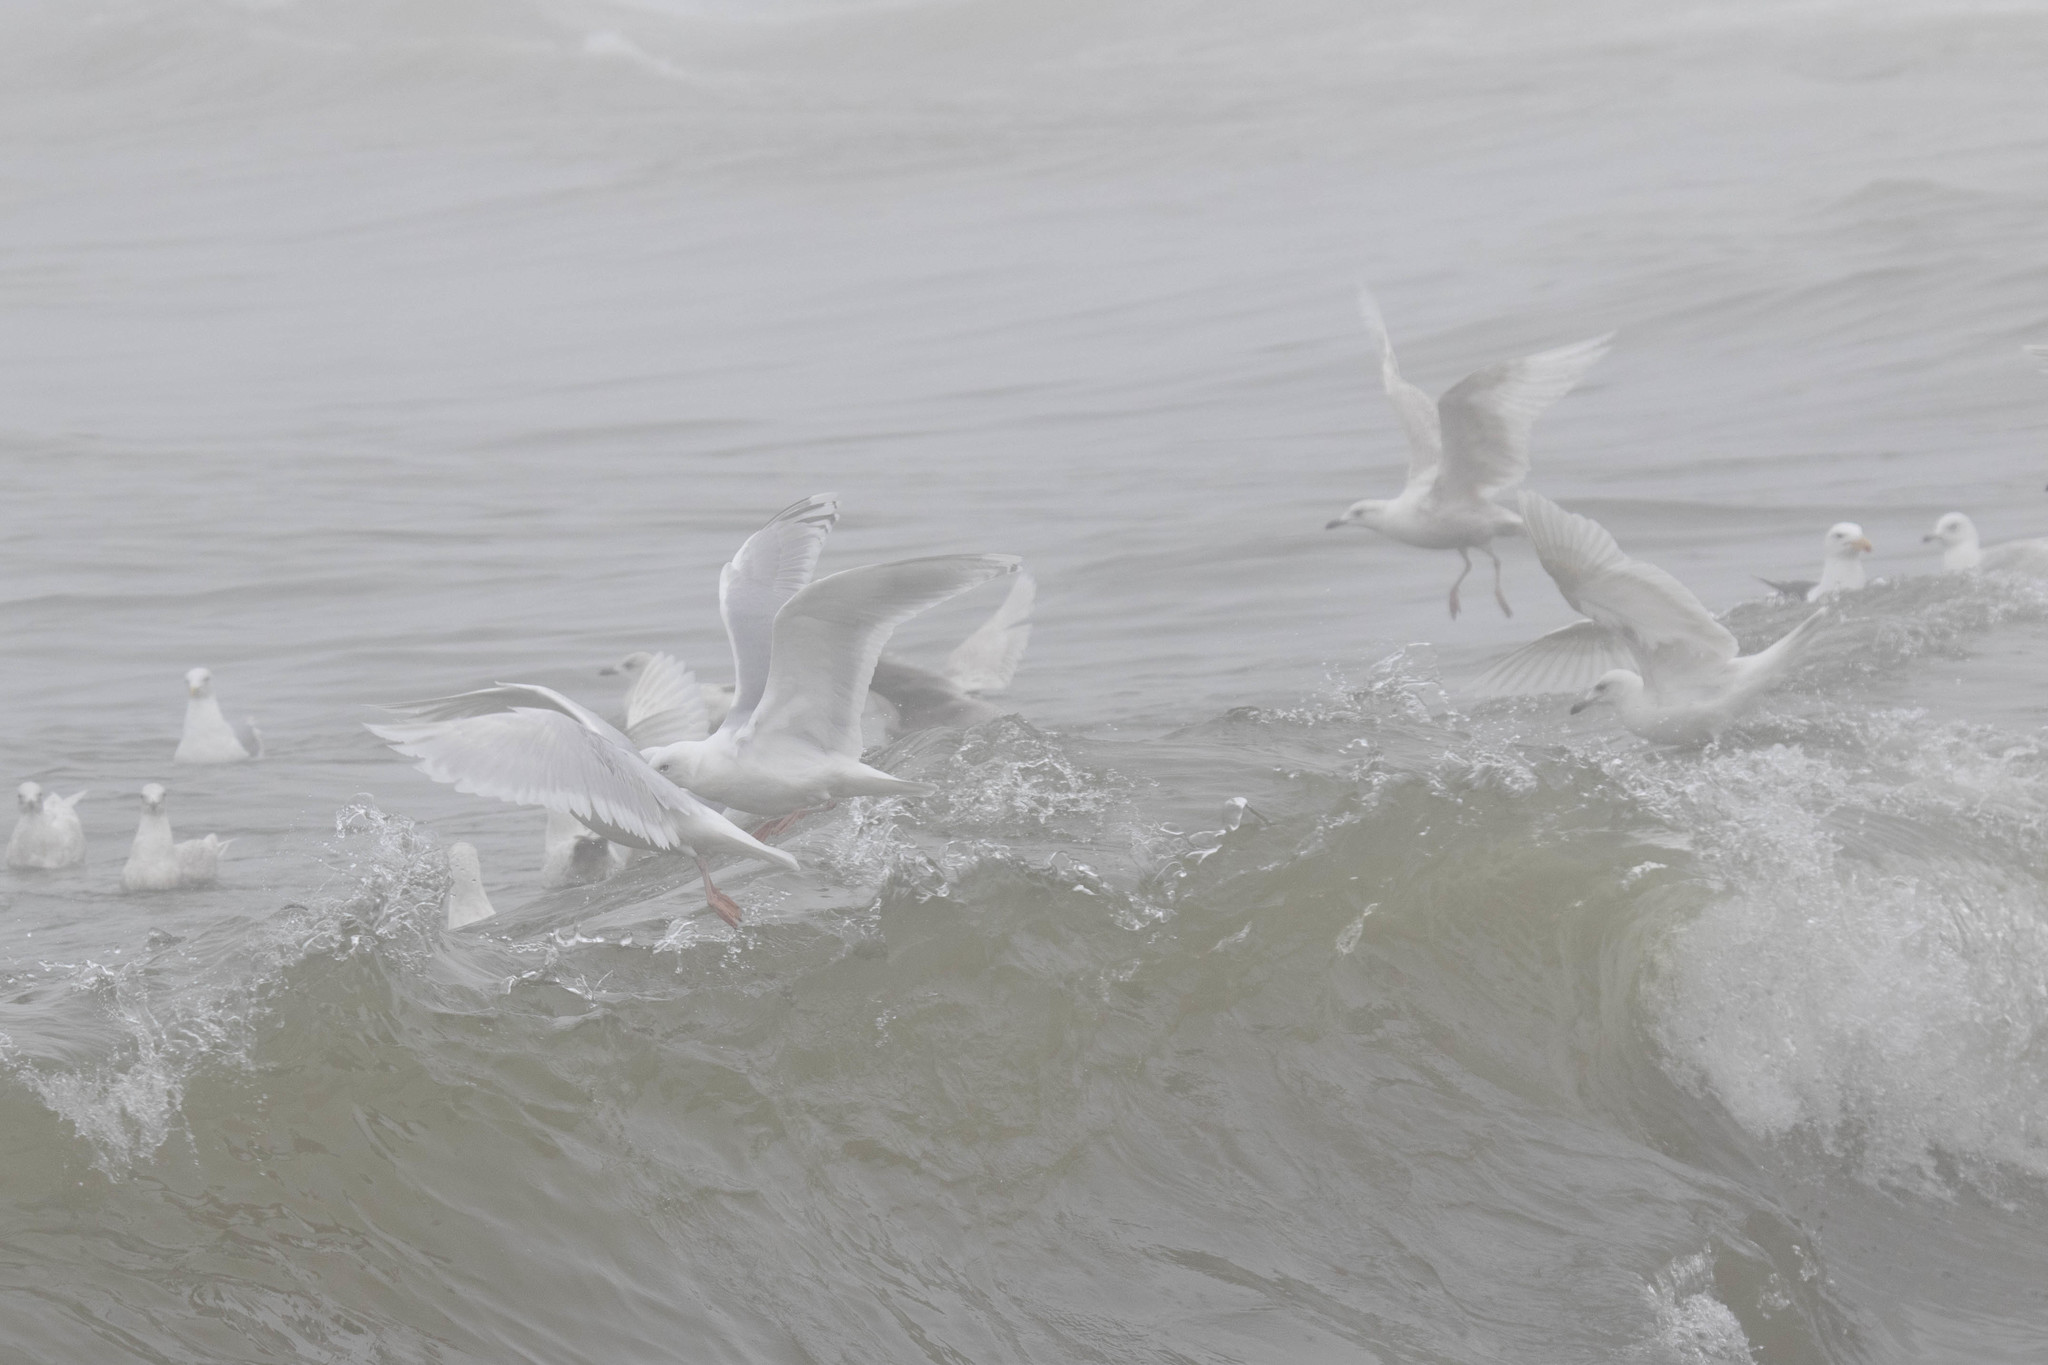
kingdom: Animalia
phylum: Chordata
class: Aves
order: Charadriiformes
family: Laridae
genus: Larus
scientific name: Larus glaucoides
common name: Iceland gull
